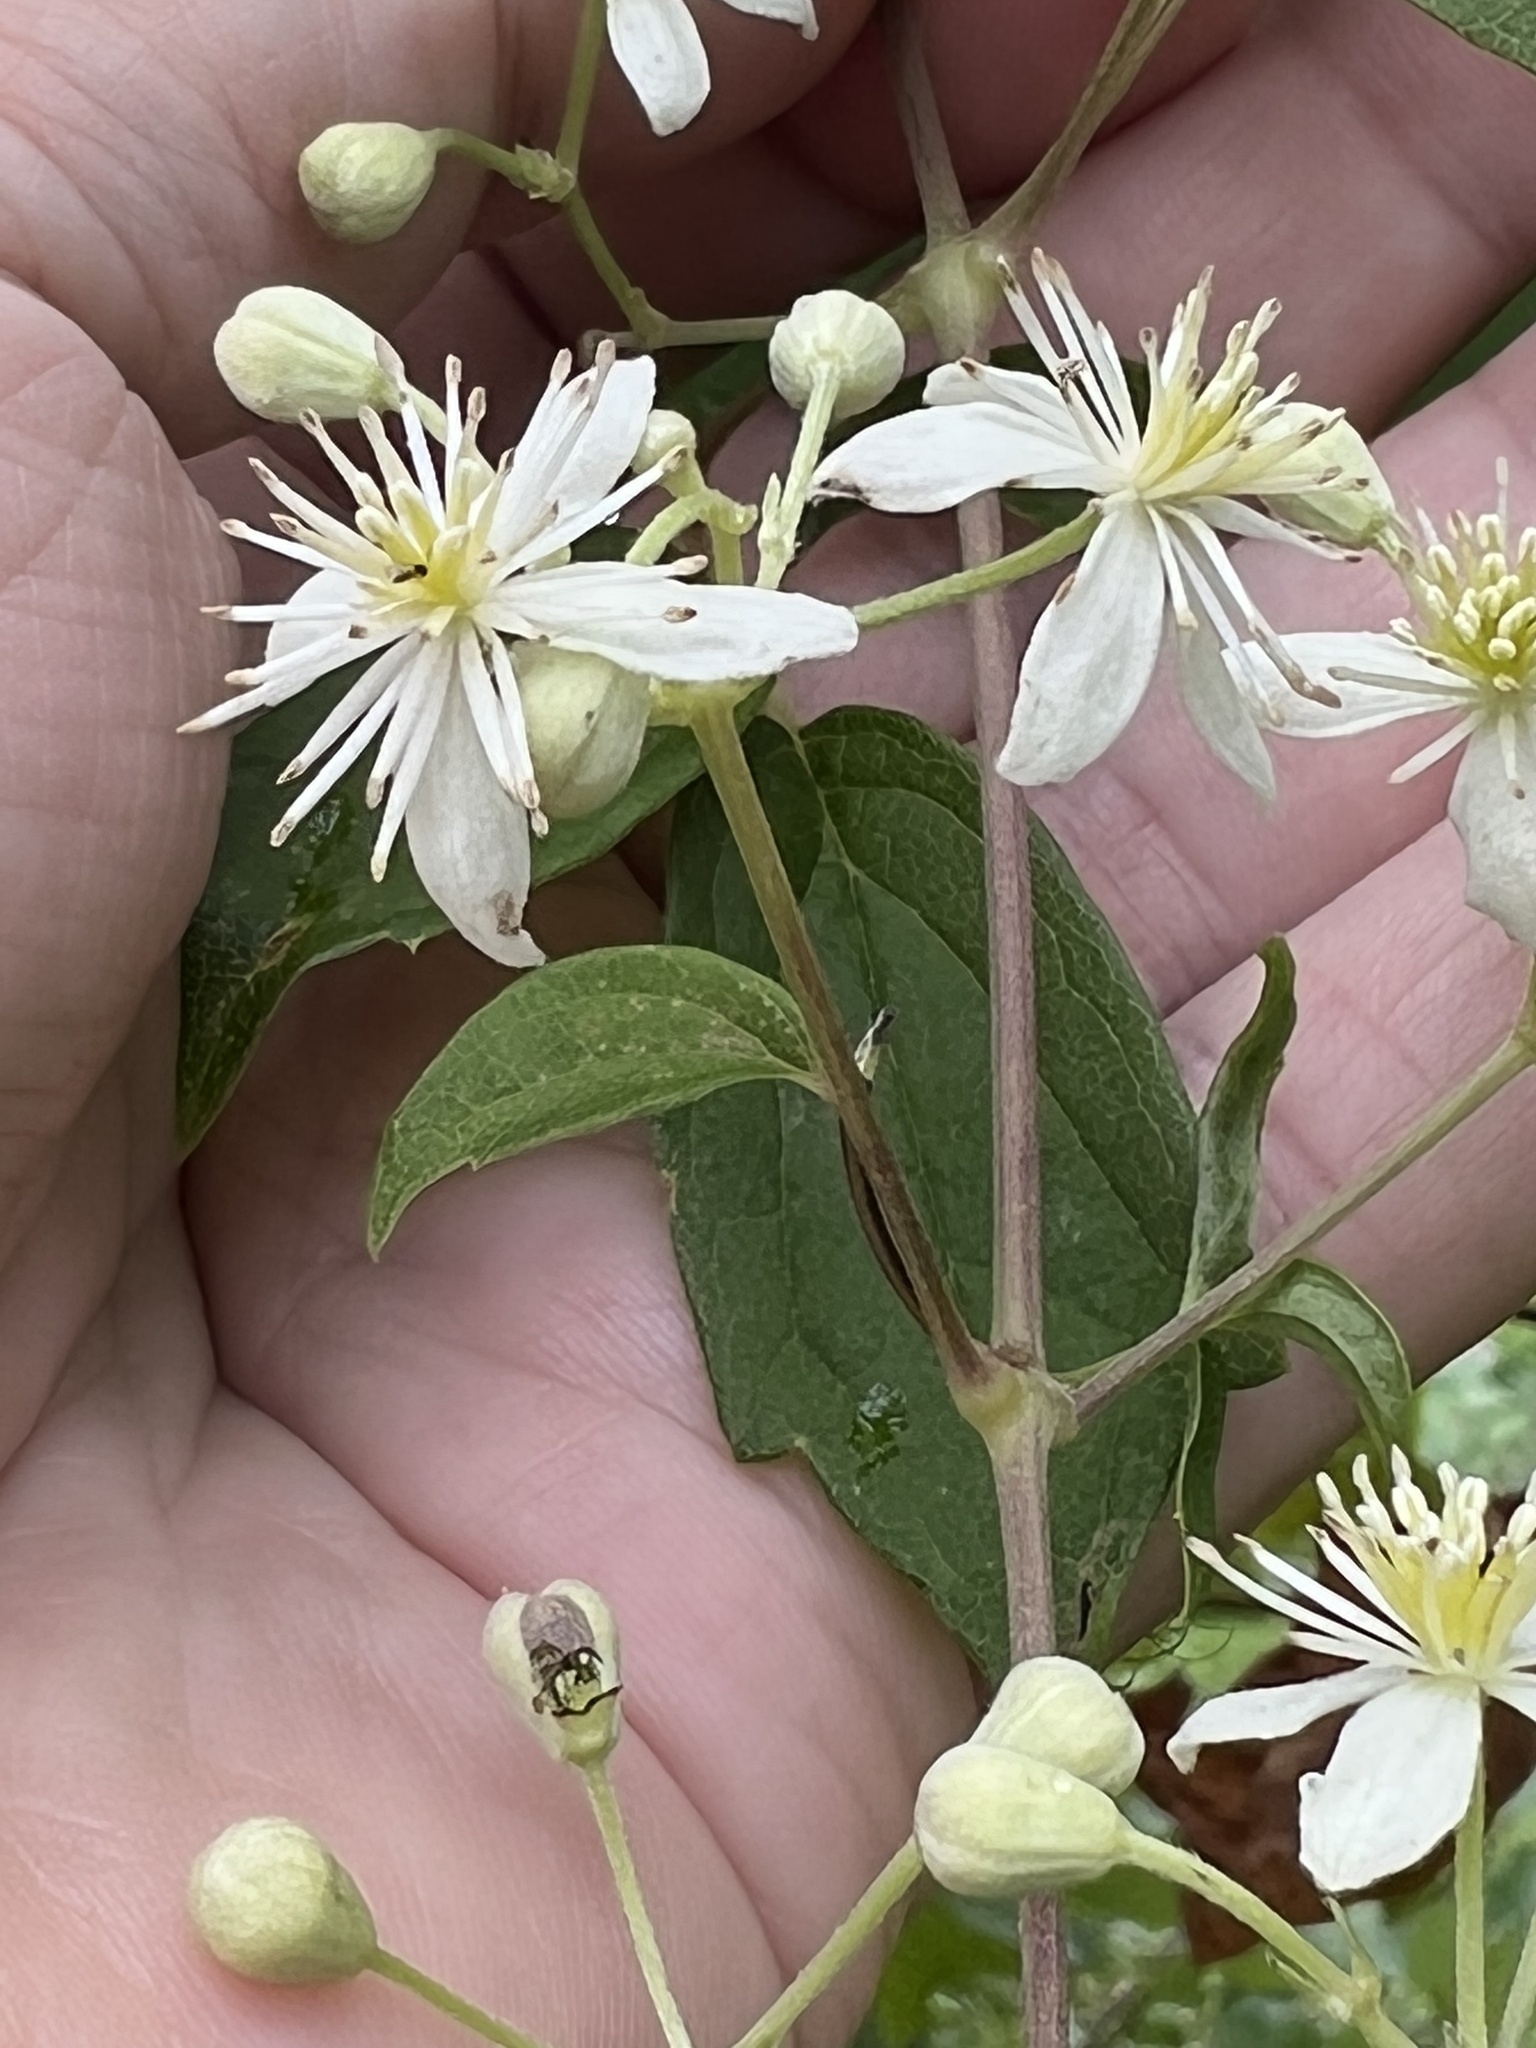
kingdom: Plantae
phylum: Tracheophyta
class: Magnoliopsida
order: Ranunculales
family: Ranunculaceae
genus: Clematis
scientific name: Clematis virginiana
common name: Virgin's-bower
